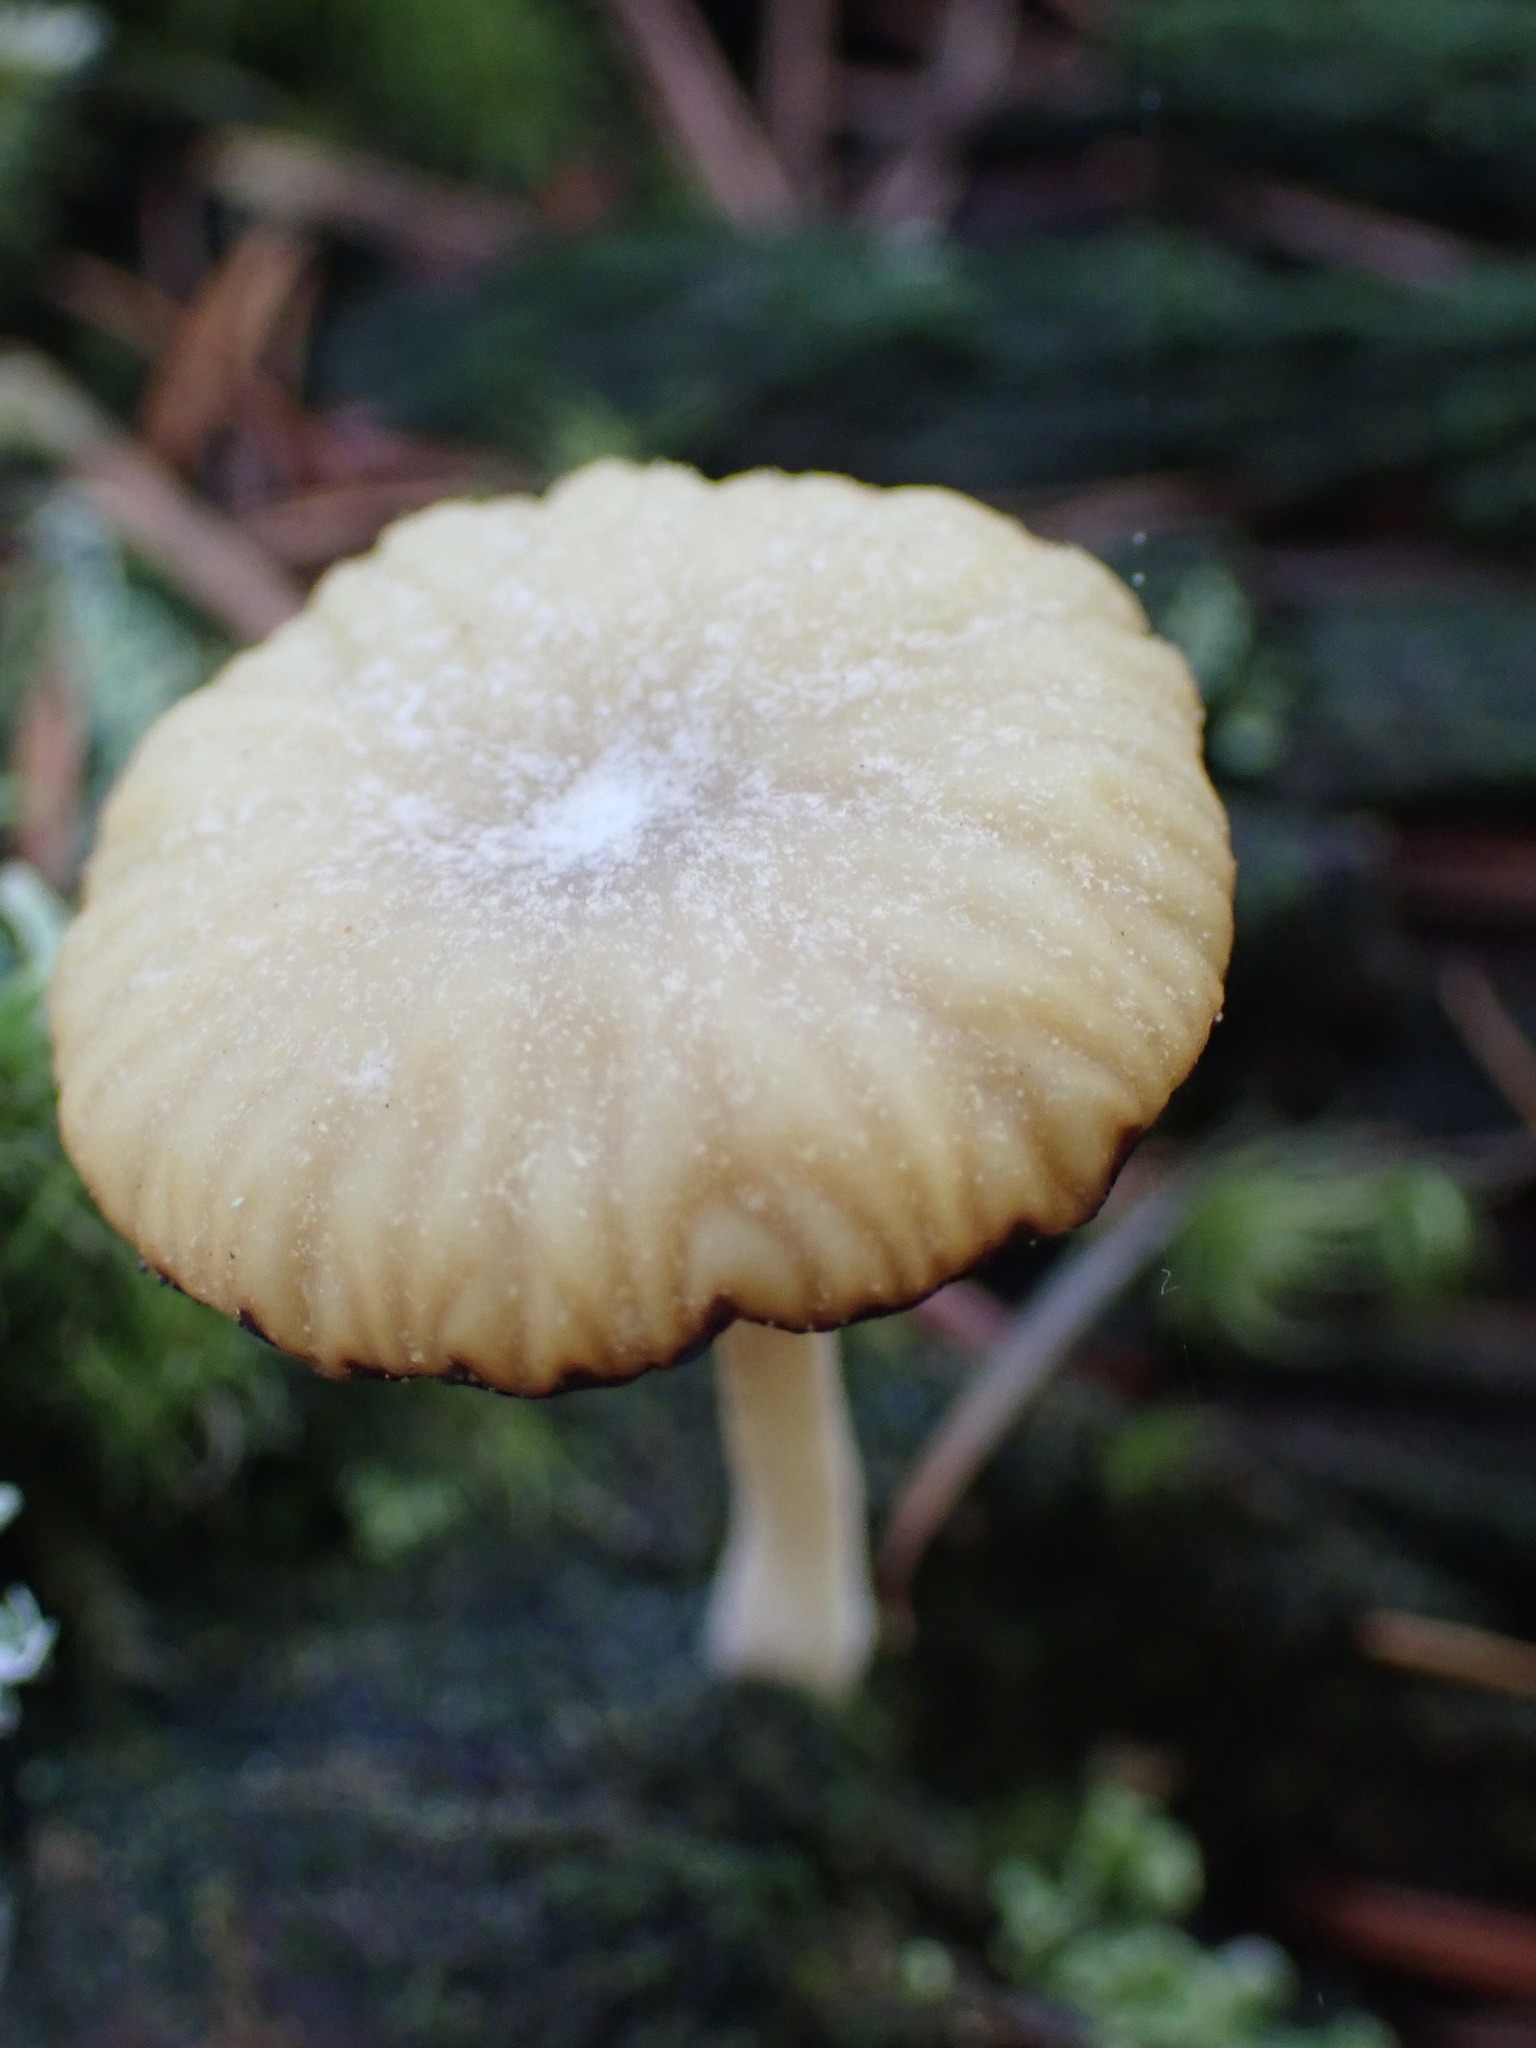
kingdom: Fungi
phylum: Basidiomycota
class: Agaricomycetes
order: Agaricales
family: Hygrophoraceae
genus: Lichenomphalia
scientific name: Lichenomphalia
